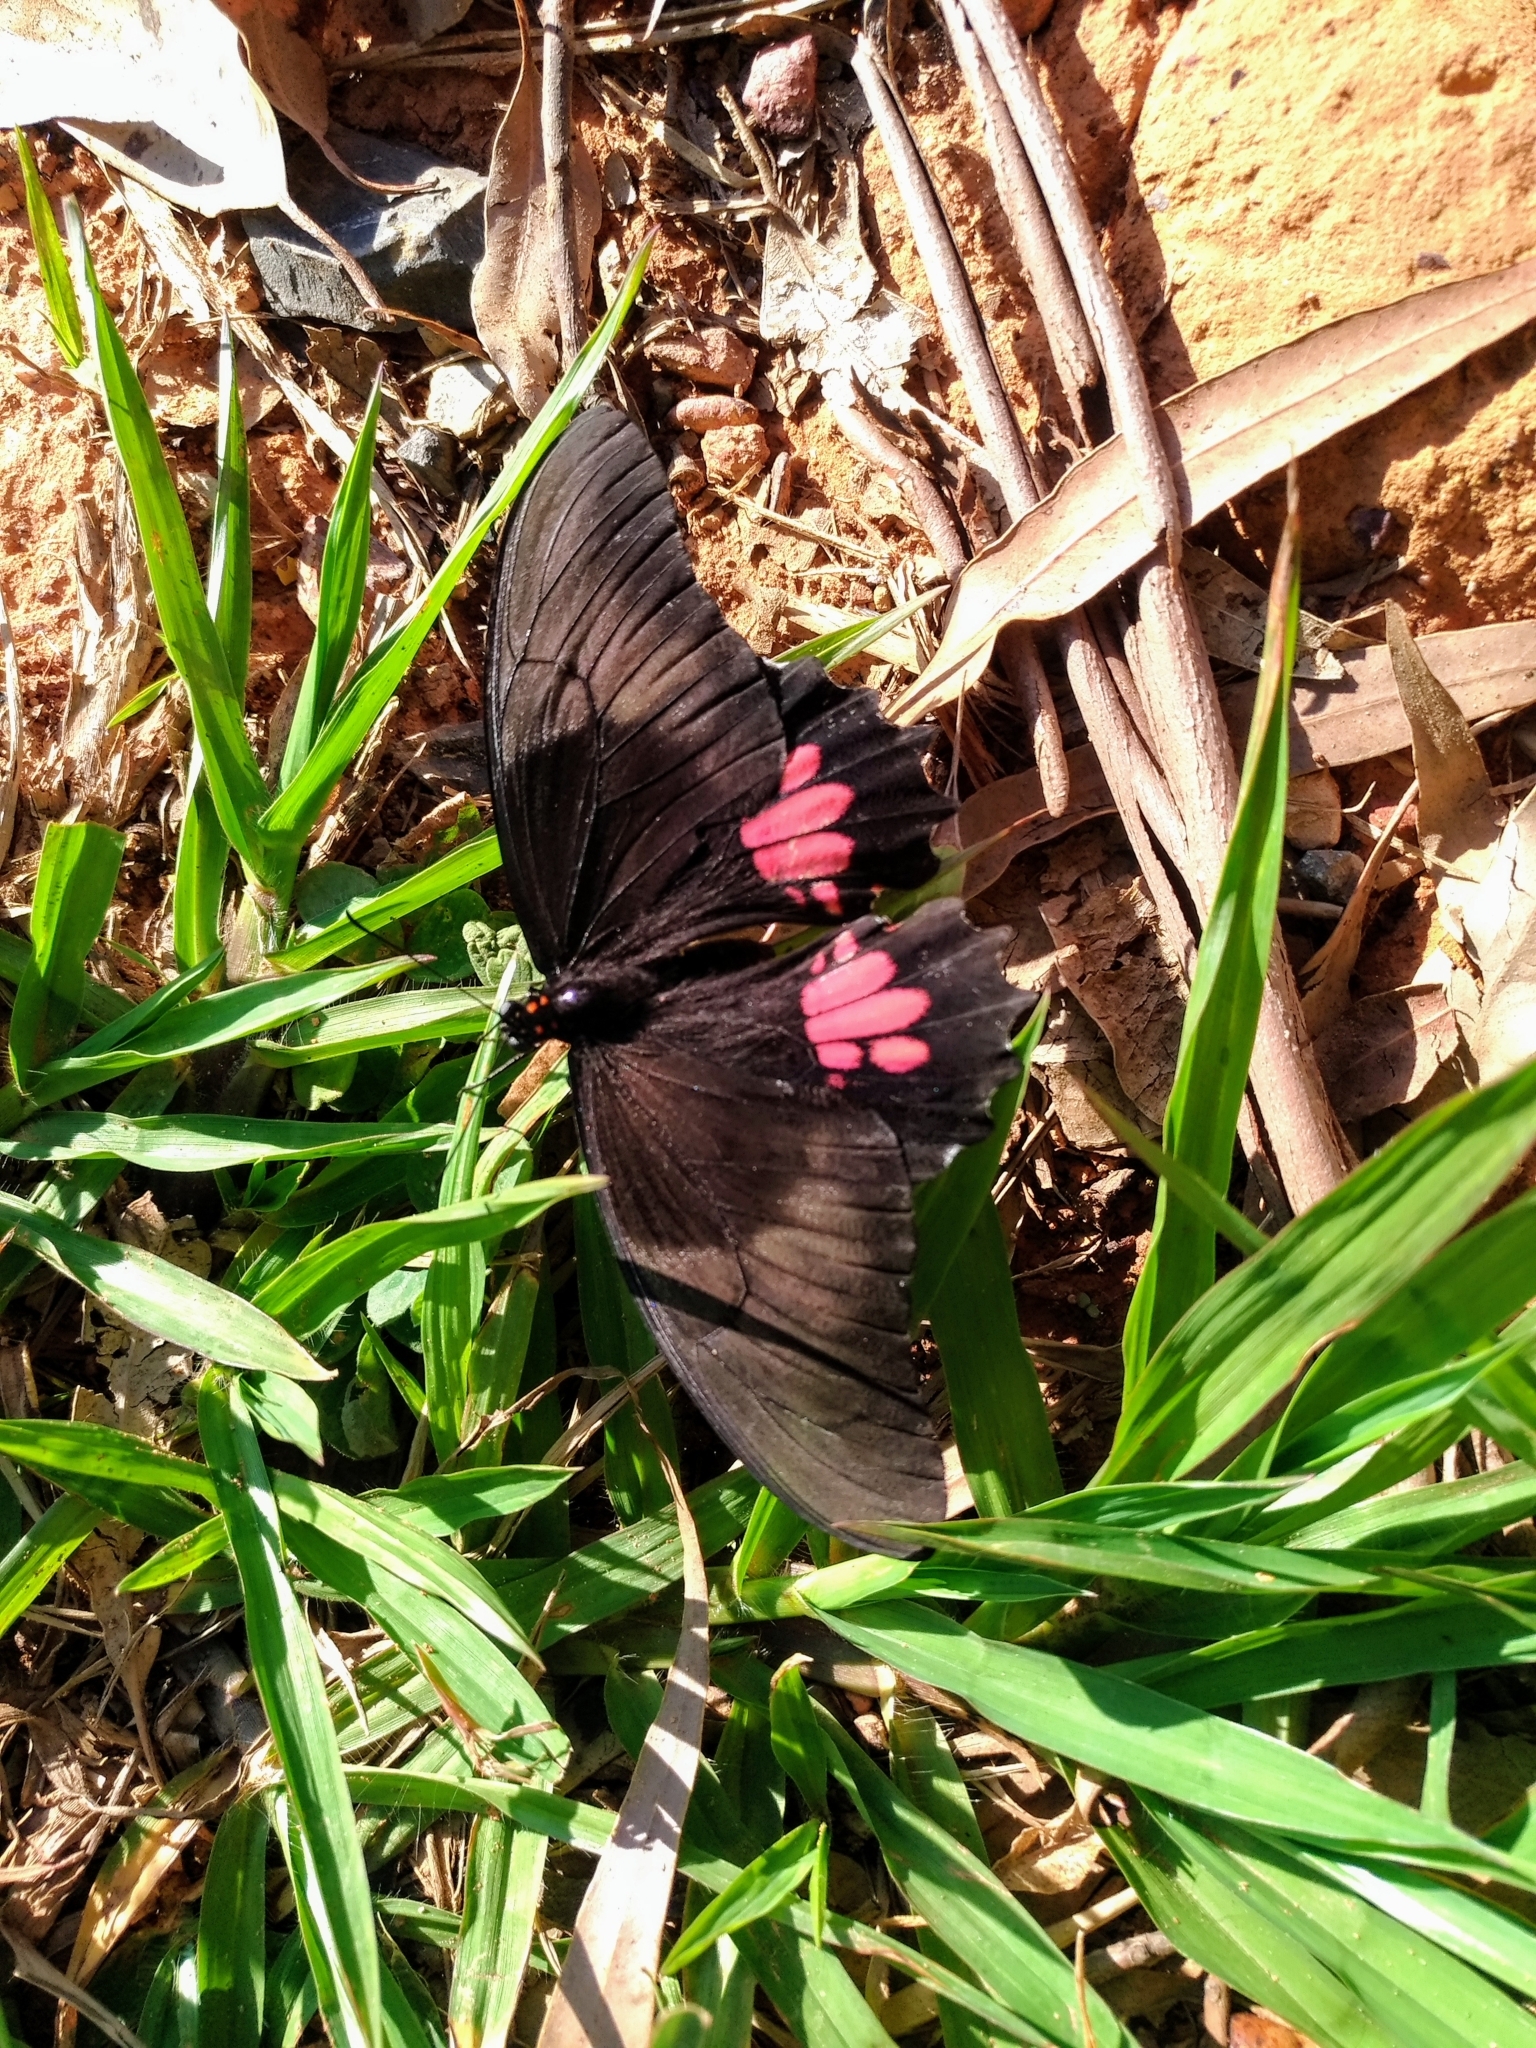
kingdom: Animalia
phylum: Arthropoda
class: Insecta
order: Lepidoptera
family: Papilionidae
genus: Papilio
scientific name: Papilio anchisiades
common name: Idaes swallowtail
